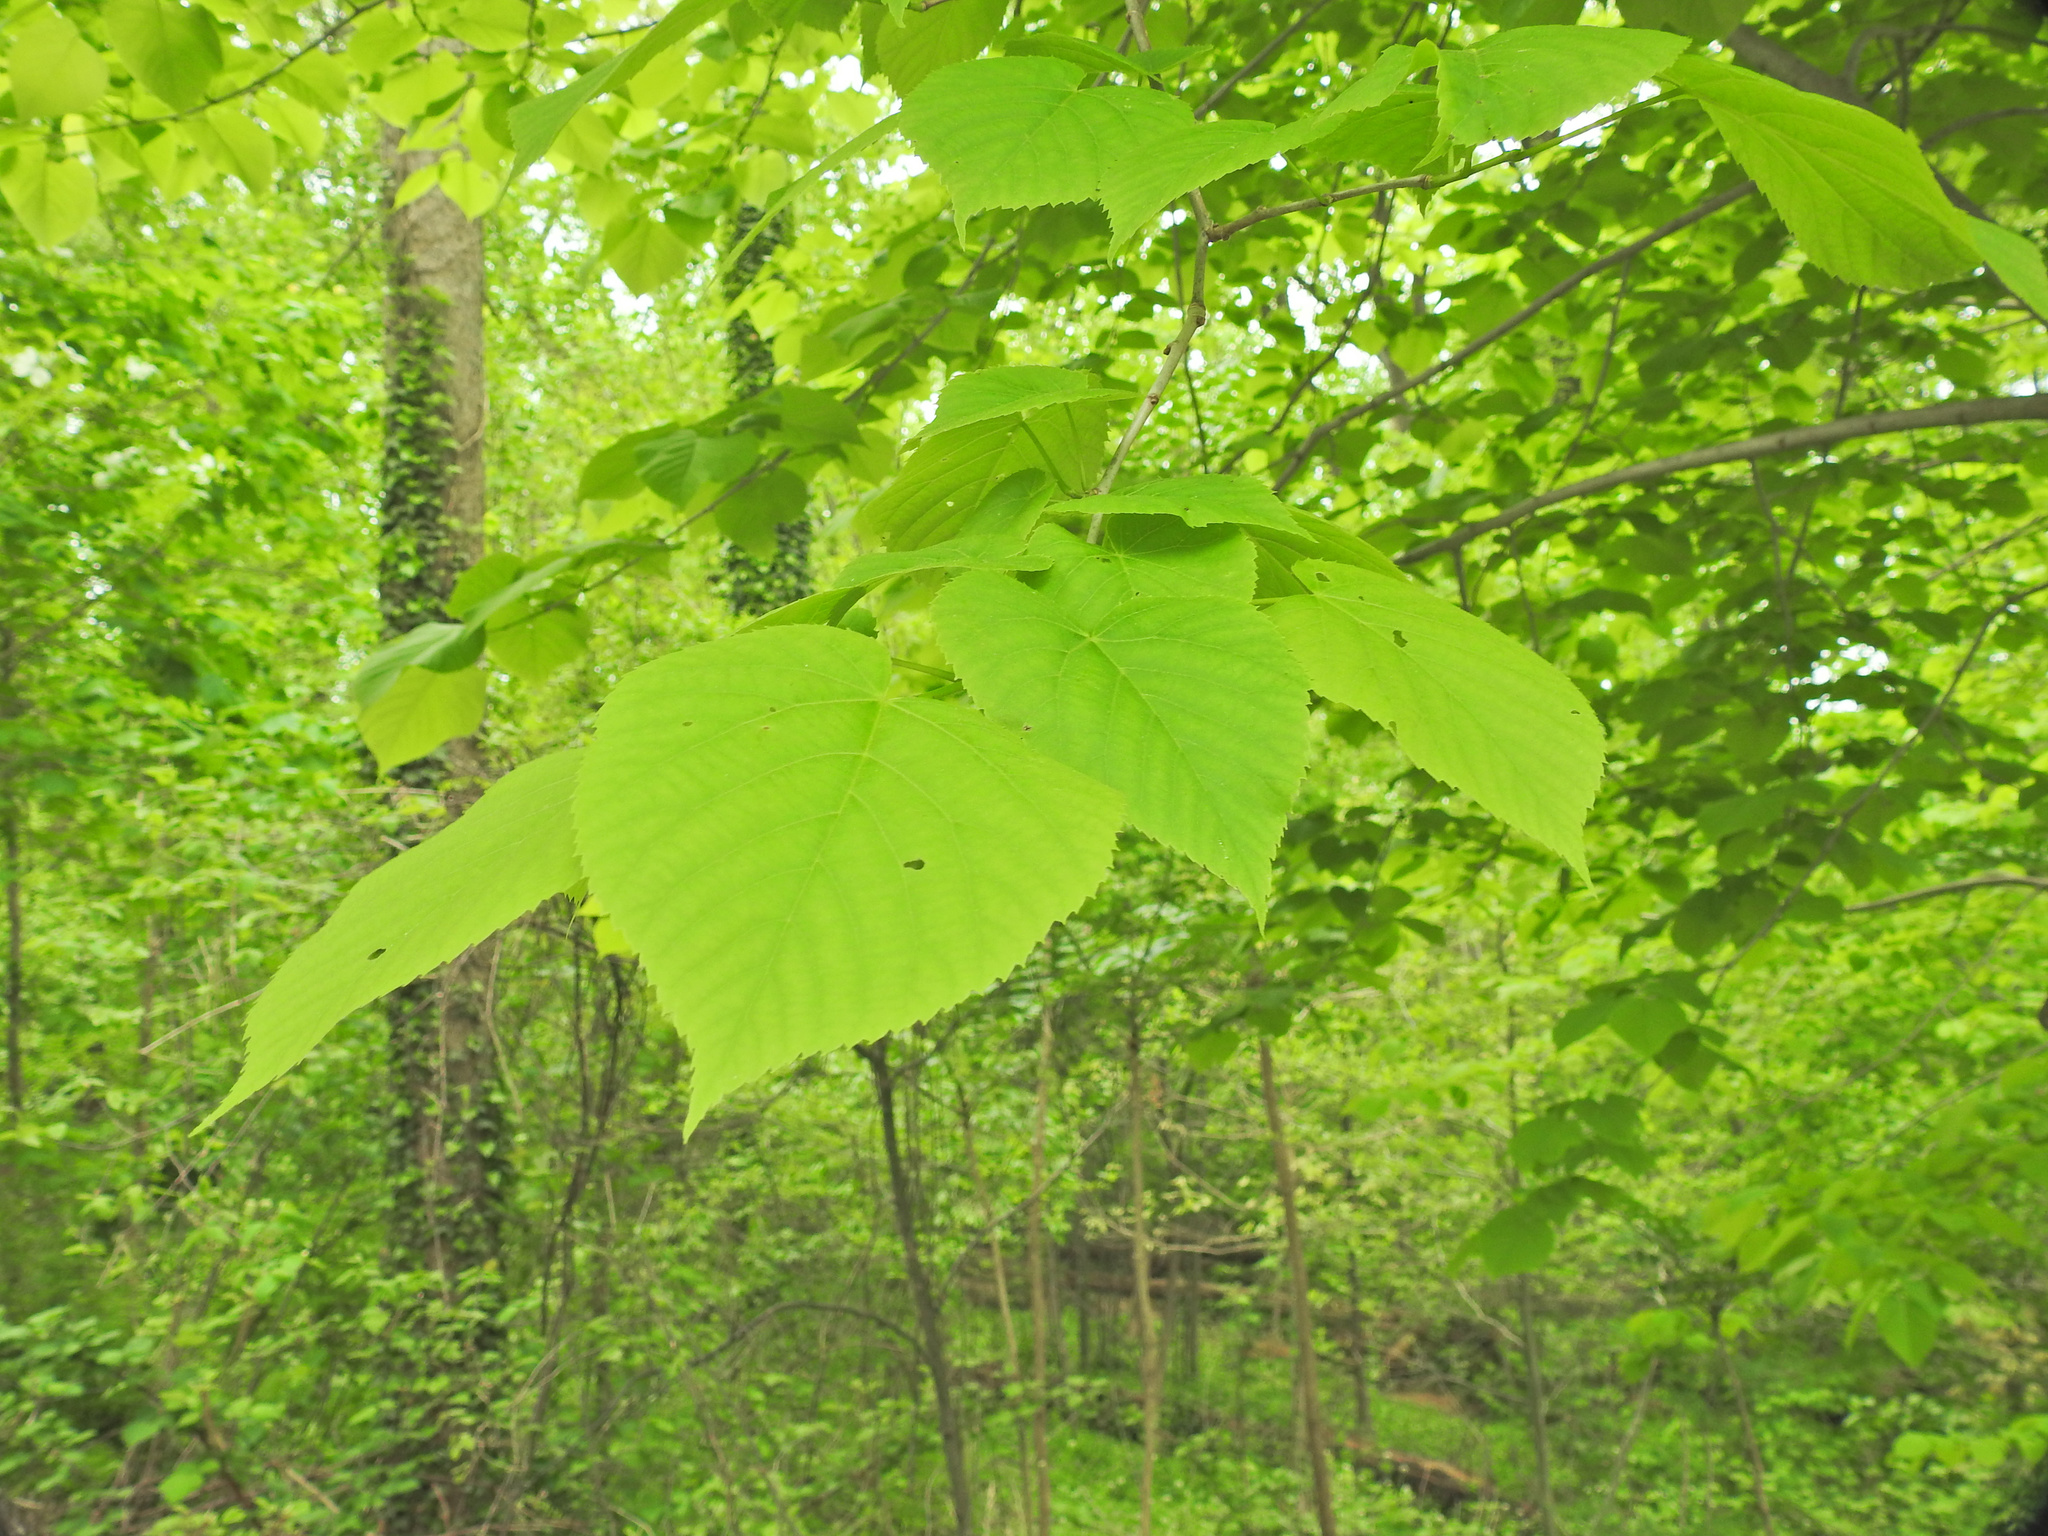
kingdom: Plantae
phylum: Tracheophyta
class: Magnoliopsida
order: Malvales
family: Malvaceae
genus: Tilia
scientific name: Tilia americana
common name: Basswood
